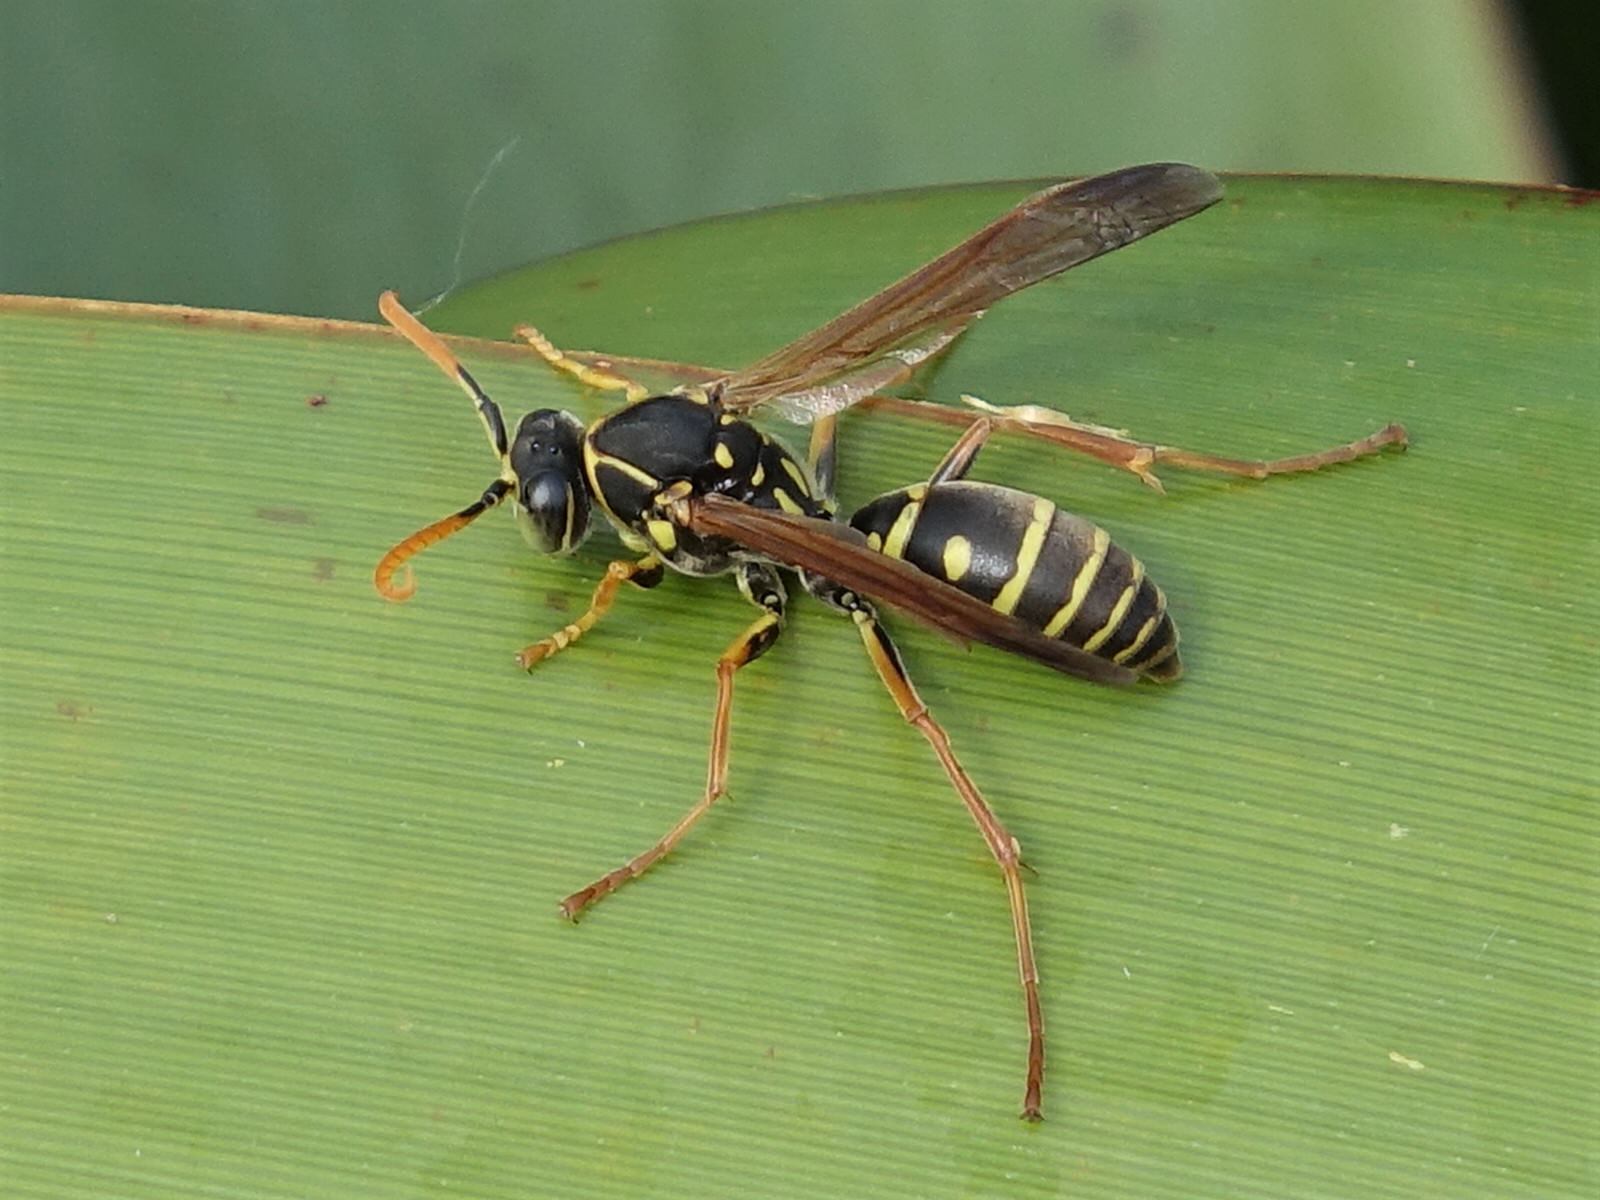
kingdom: Animalia
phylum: Arthropoda
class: Insecta
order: Hymenoptera
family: Eumenidae
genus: Polistes
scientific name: Polistes chinensis
